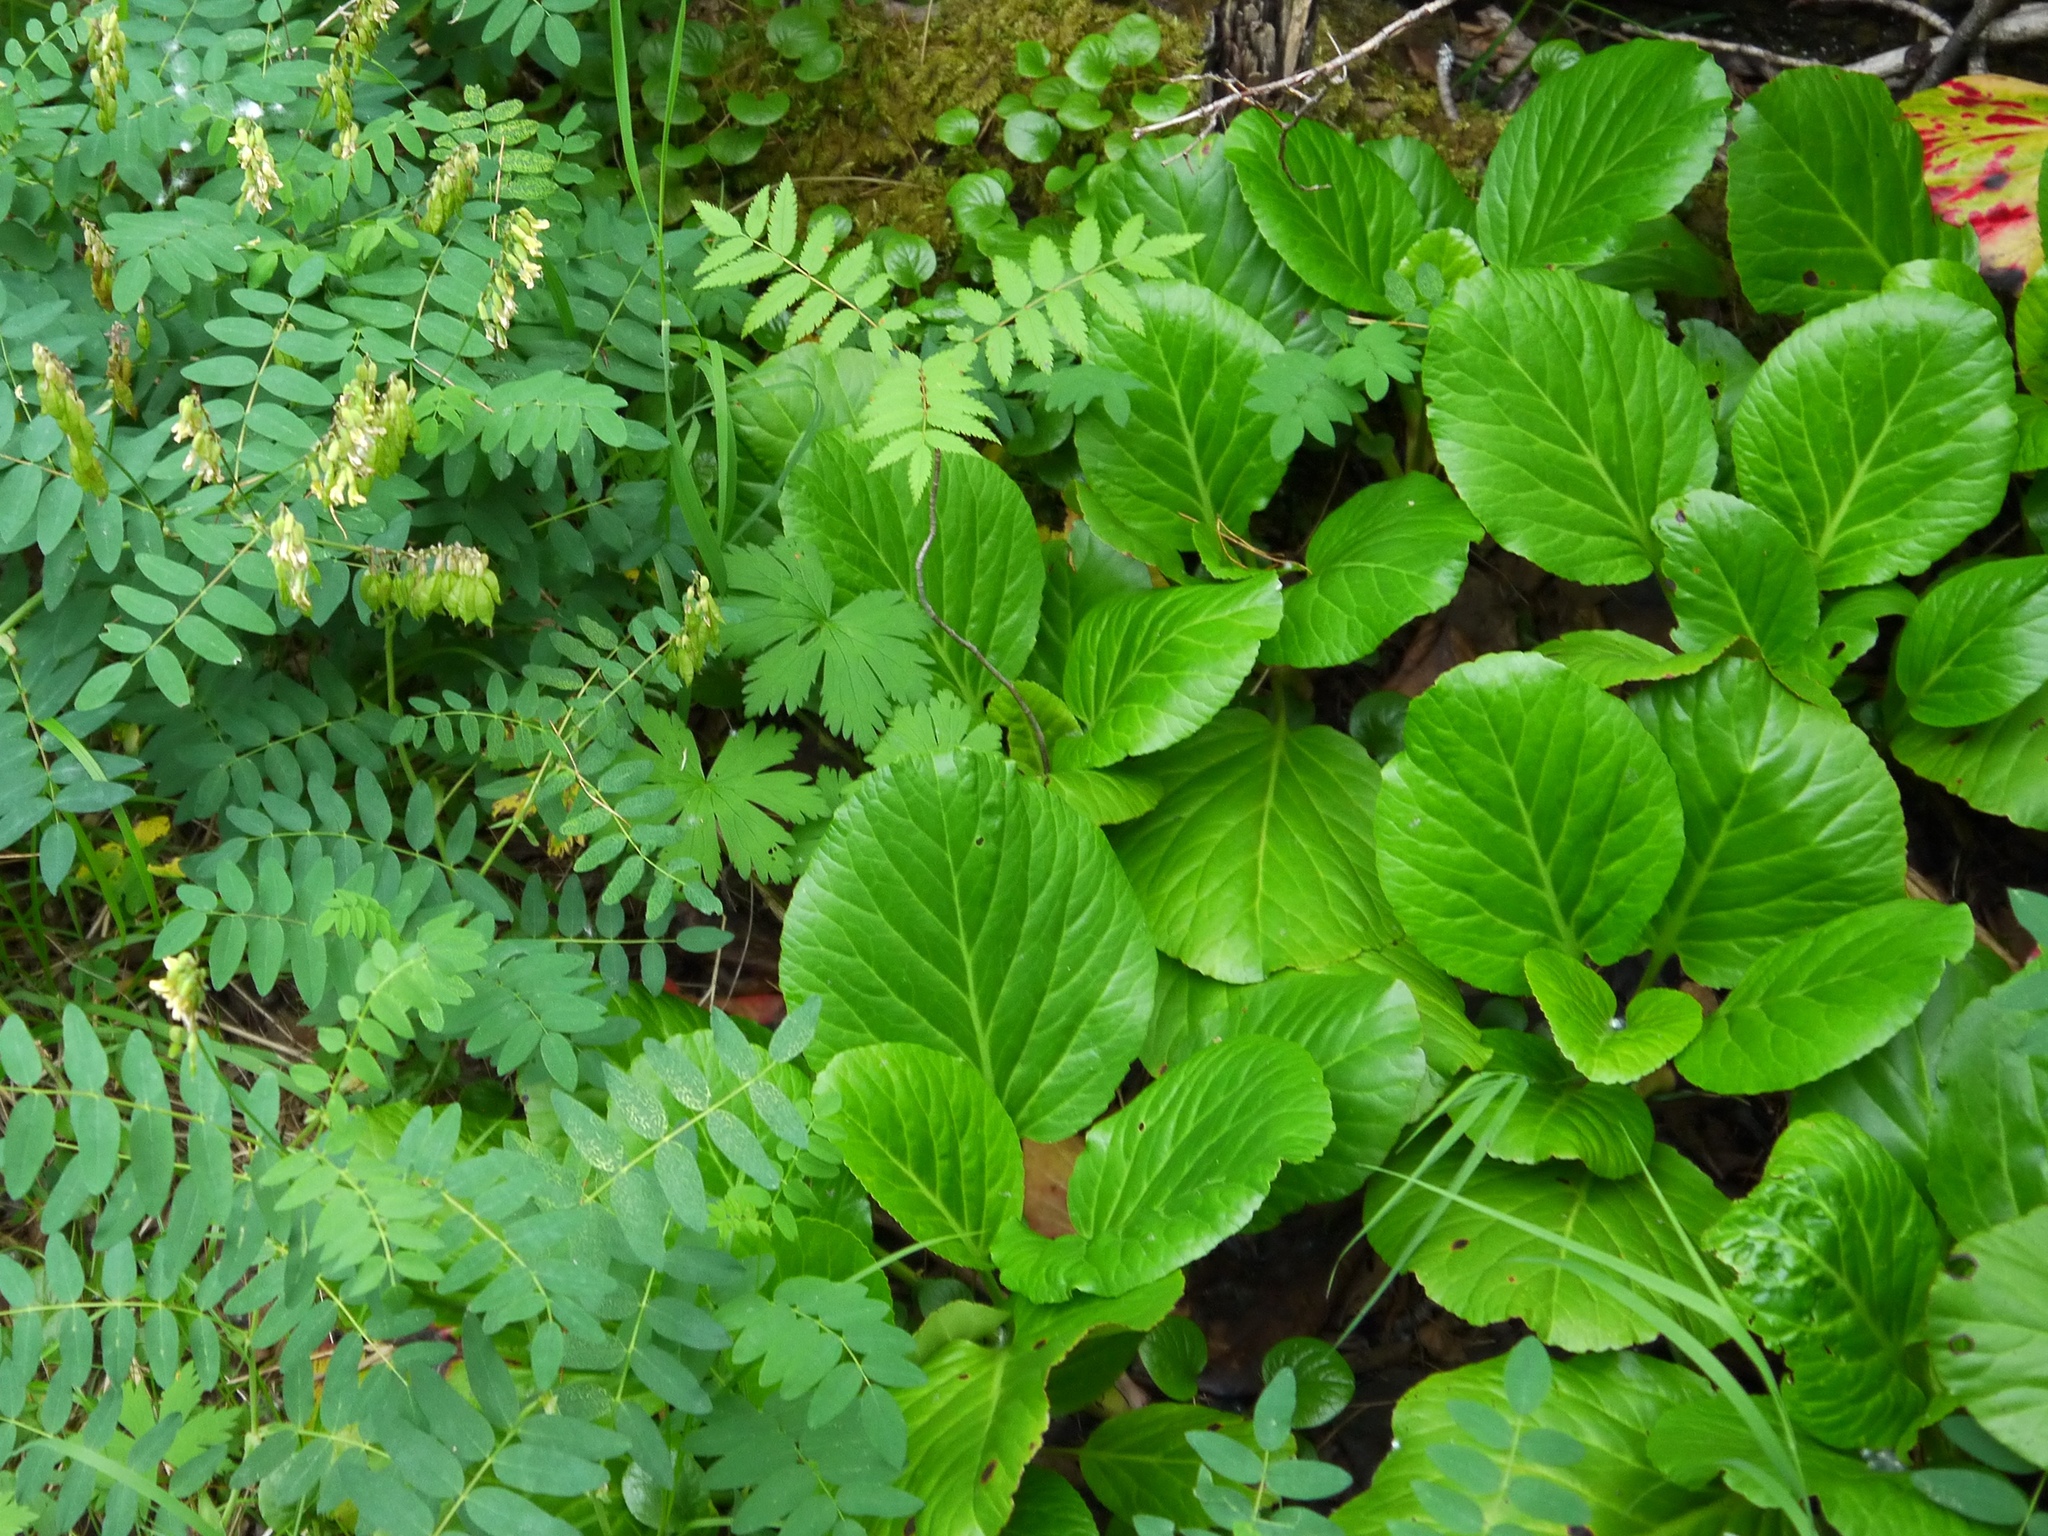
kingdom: Plantae
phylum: Tracheophyta
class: Magnoliopsida
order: Saxifragales
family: Saxifragaceae
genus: Bergenia
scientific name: Bergenia crassifolia
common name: Elephant-ears
